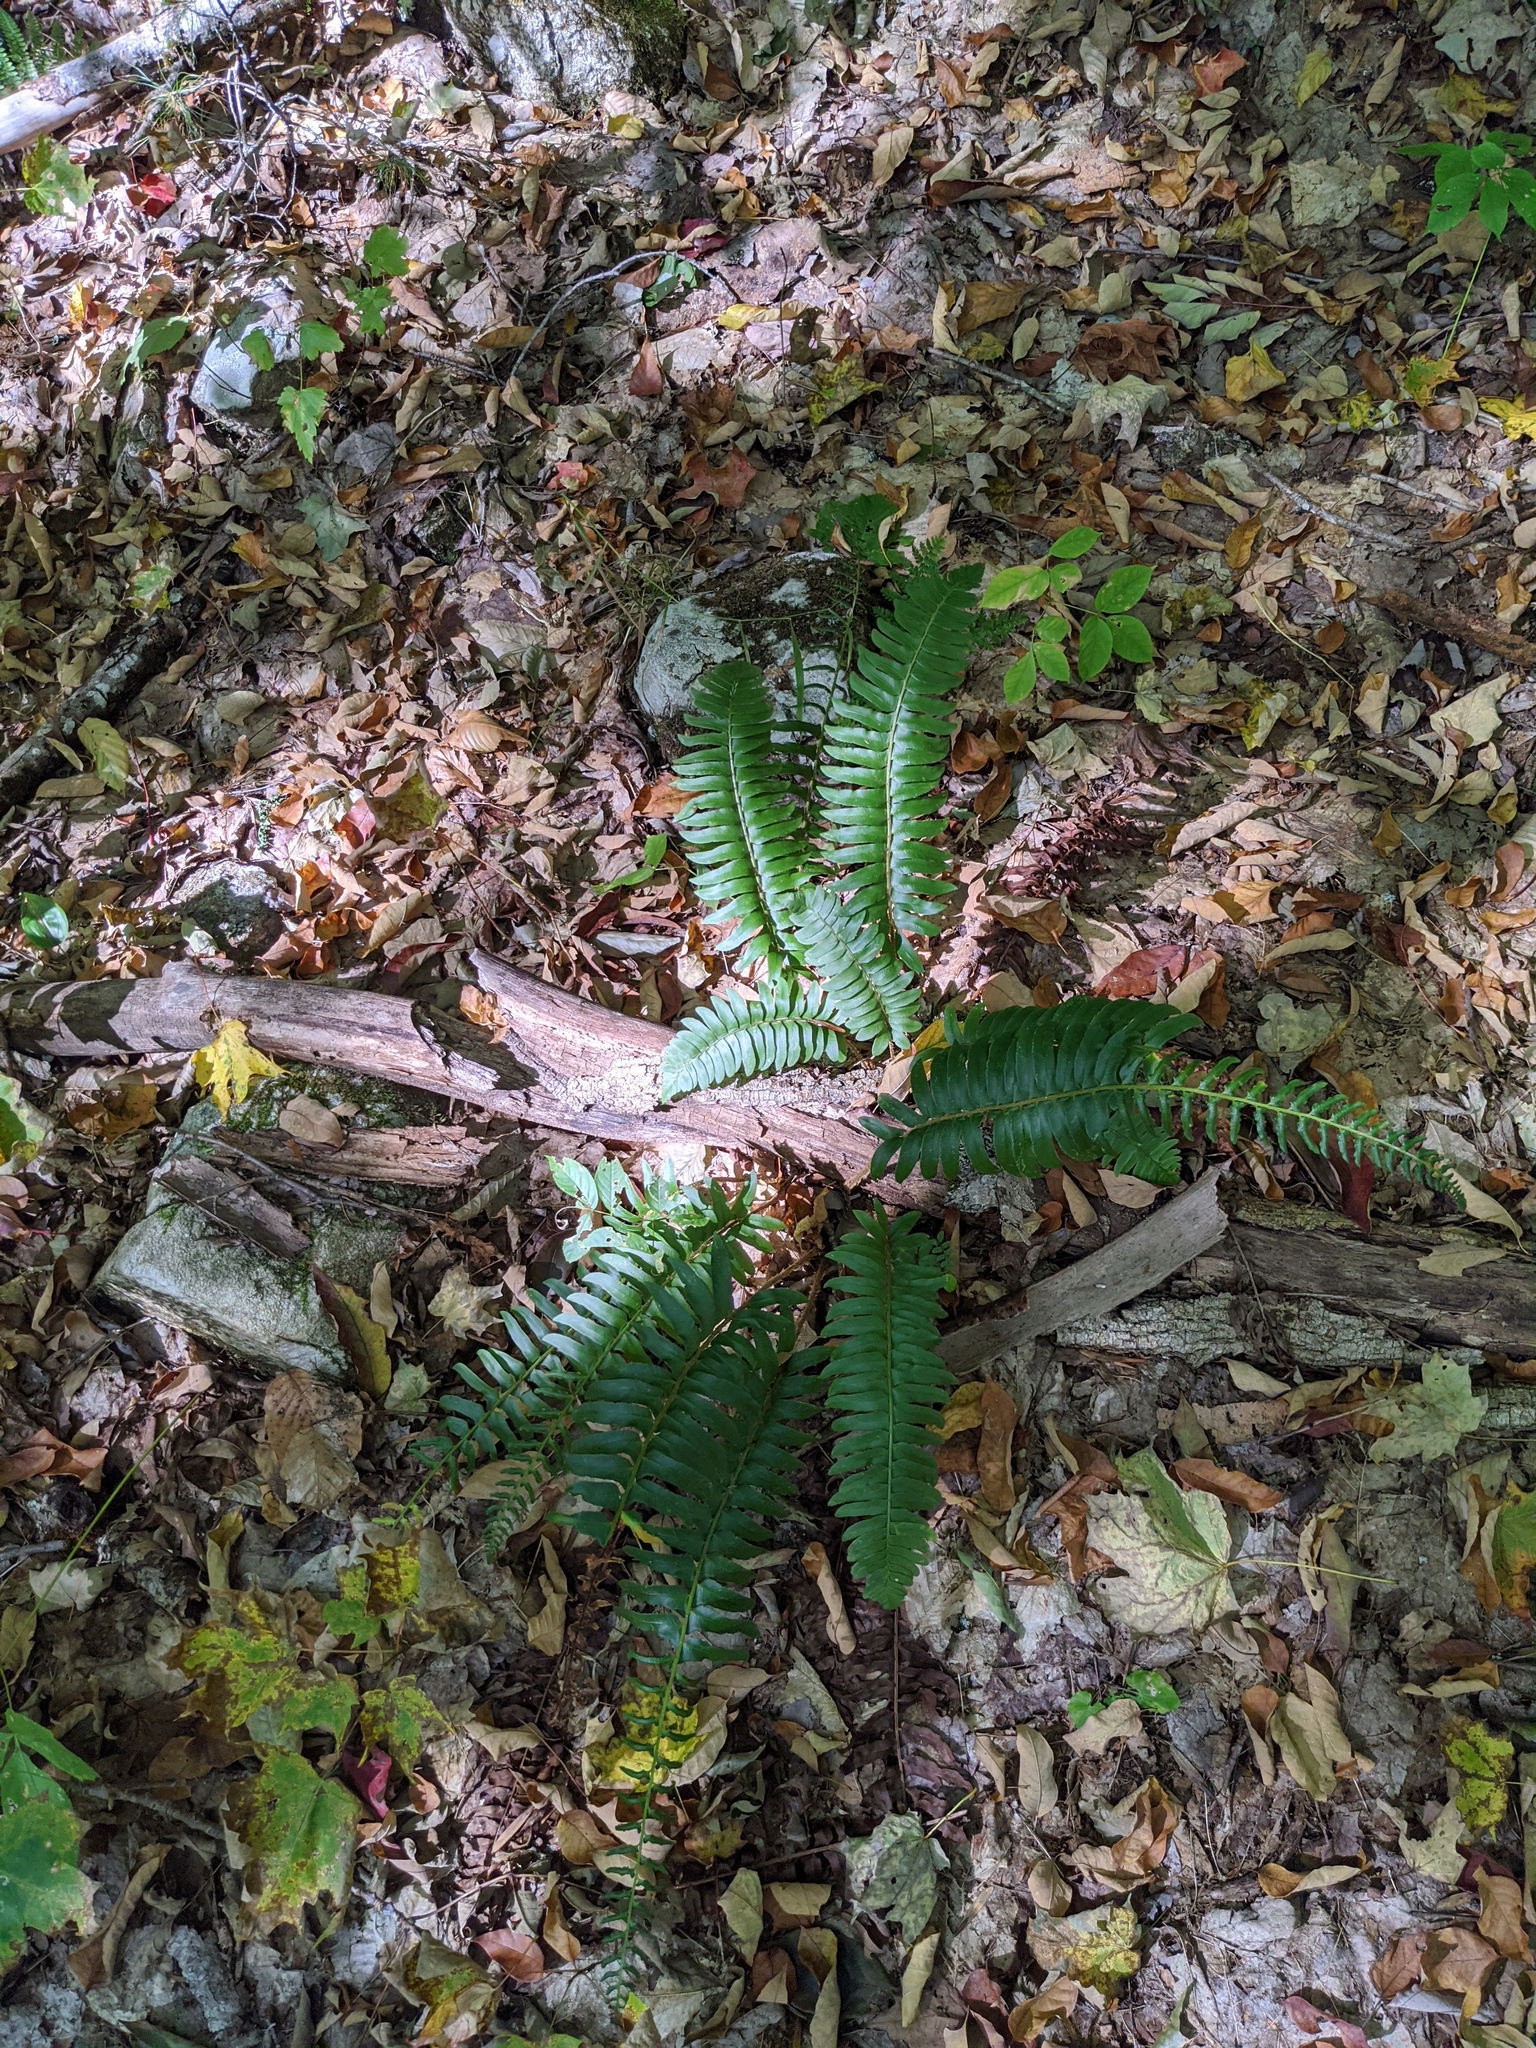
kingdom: Plantae
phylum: Tracheophyta
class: Polypodiopsida
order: Polypodiales
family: Dryopteridaceae
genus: Polystichum
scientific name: Polystichum acrostichoides
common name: Christmas fern
